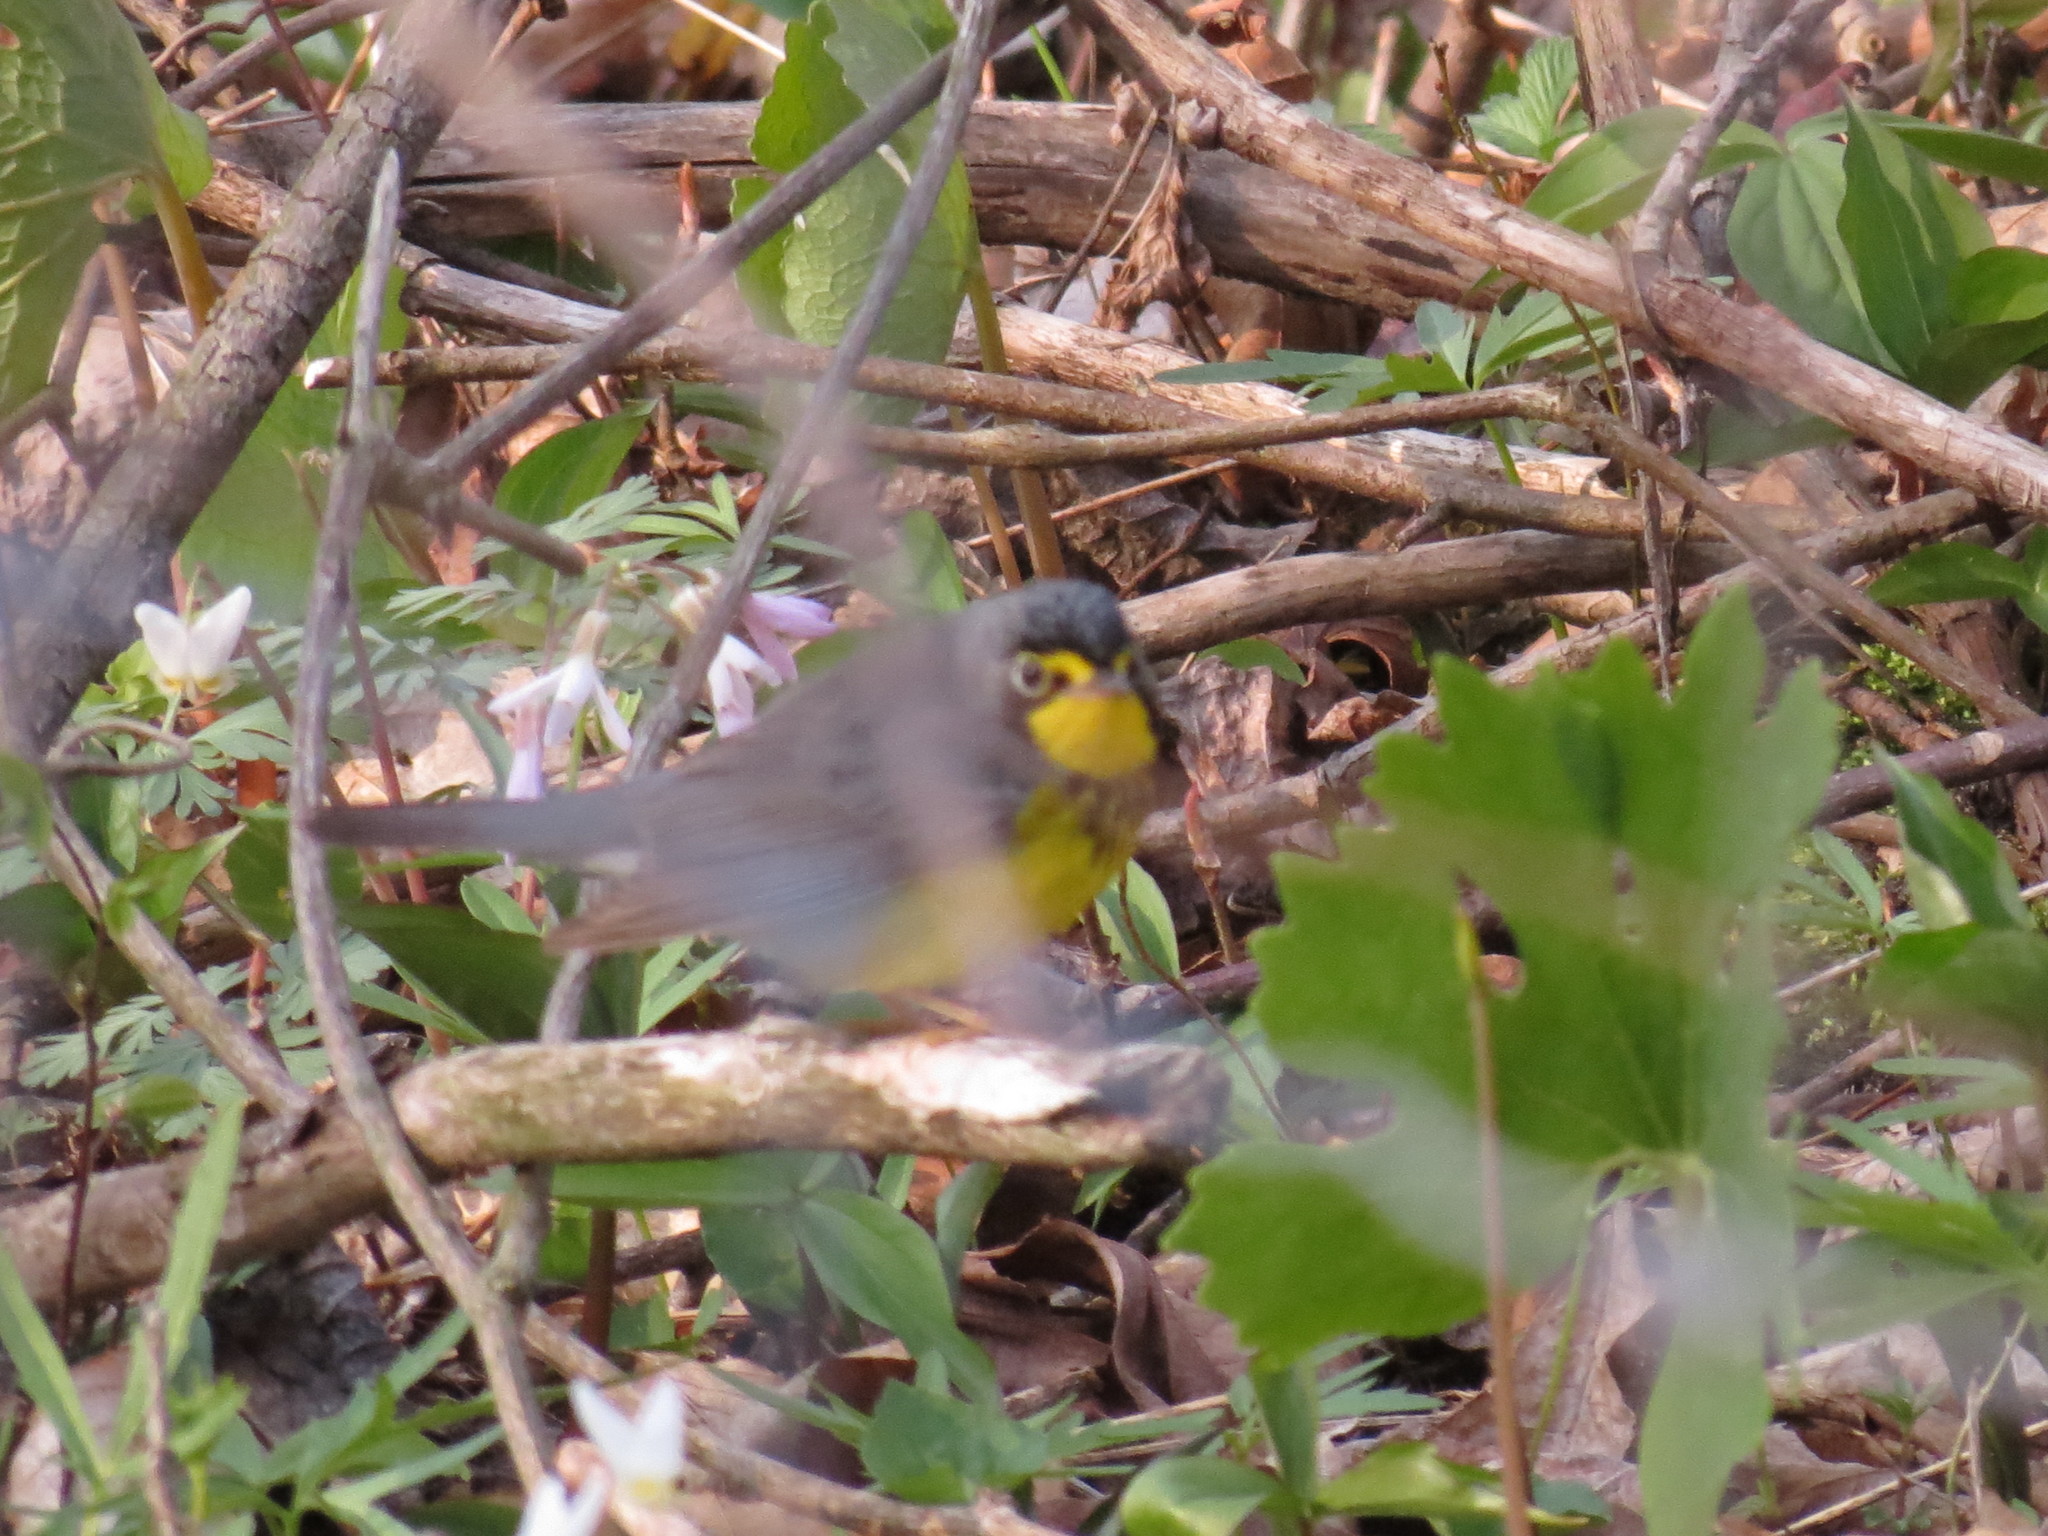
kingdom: Animalia
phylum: Chordata
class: Aves
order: Passeriformes
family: Parulidae
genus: Cardellina
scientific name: Cardellina canadensis
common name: Canada warbler
